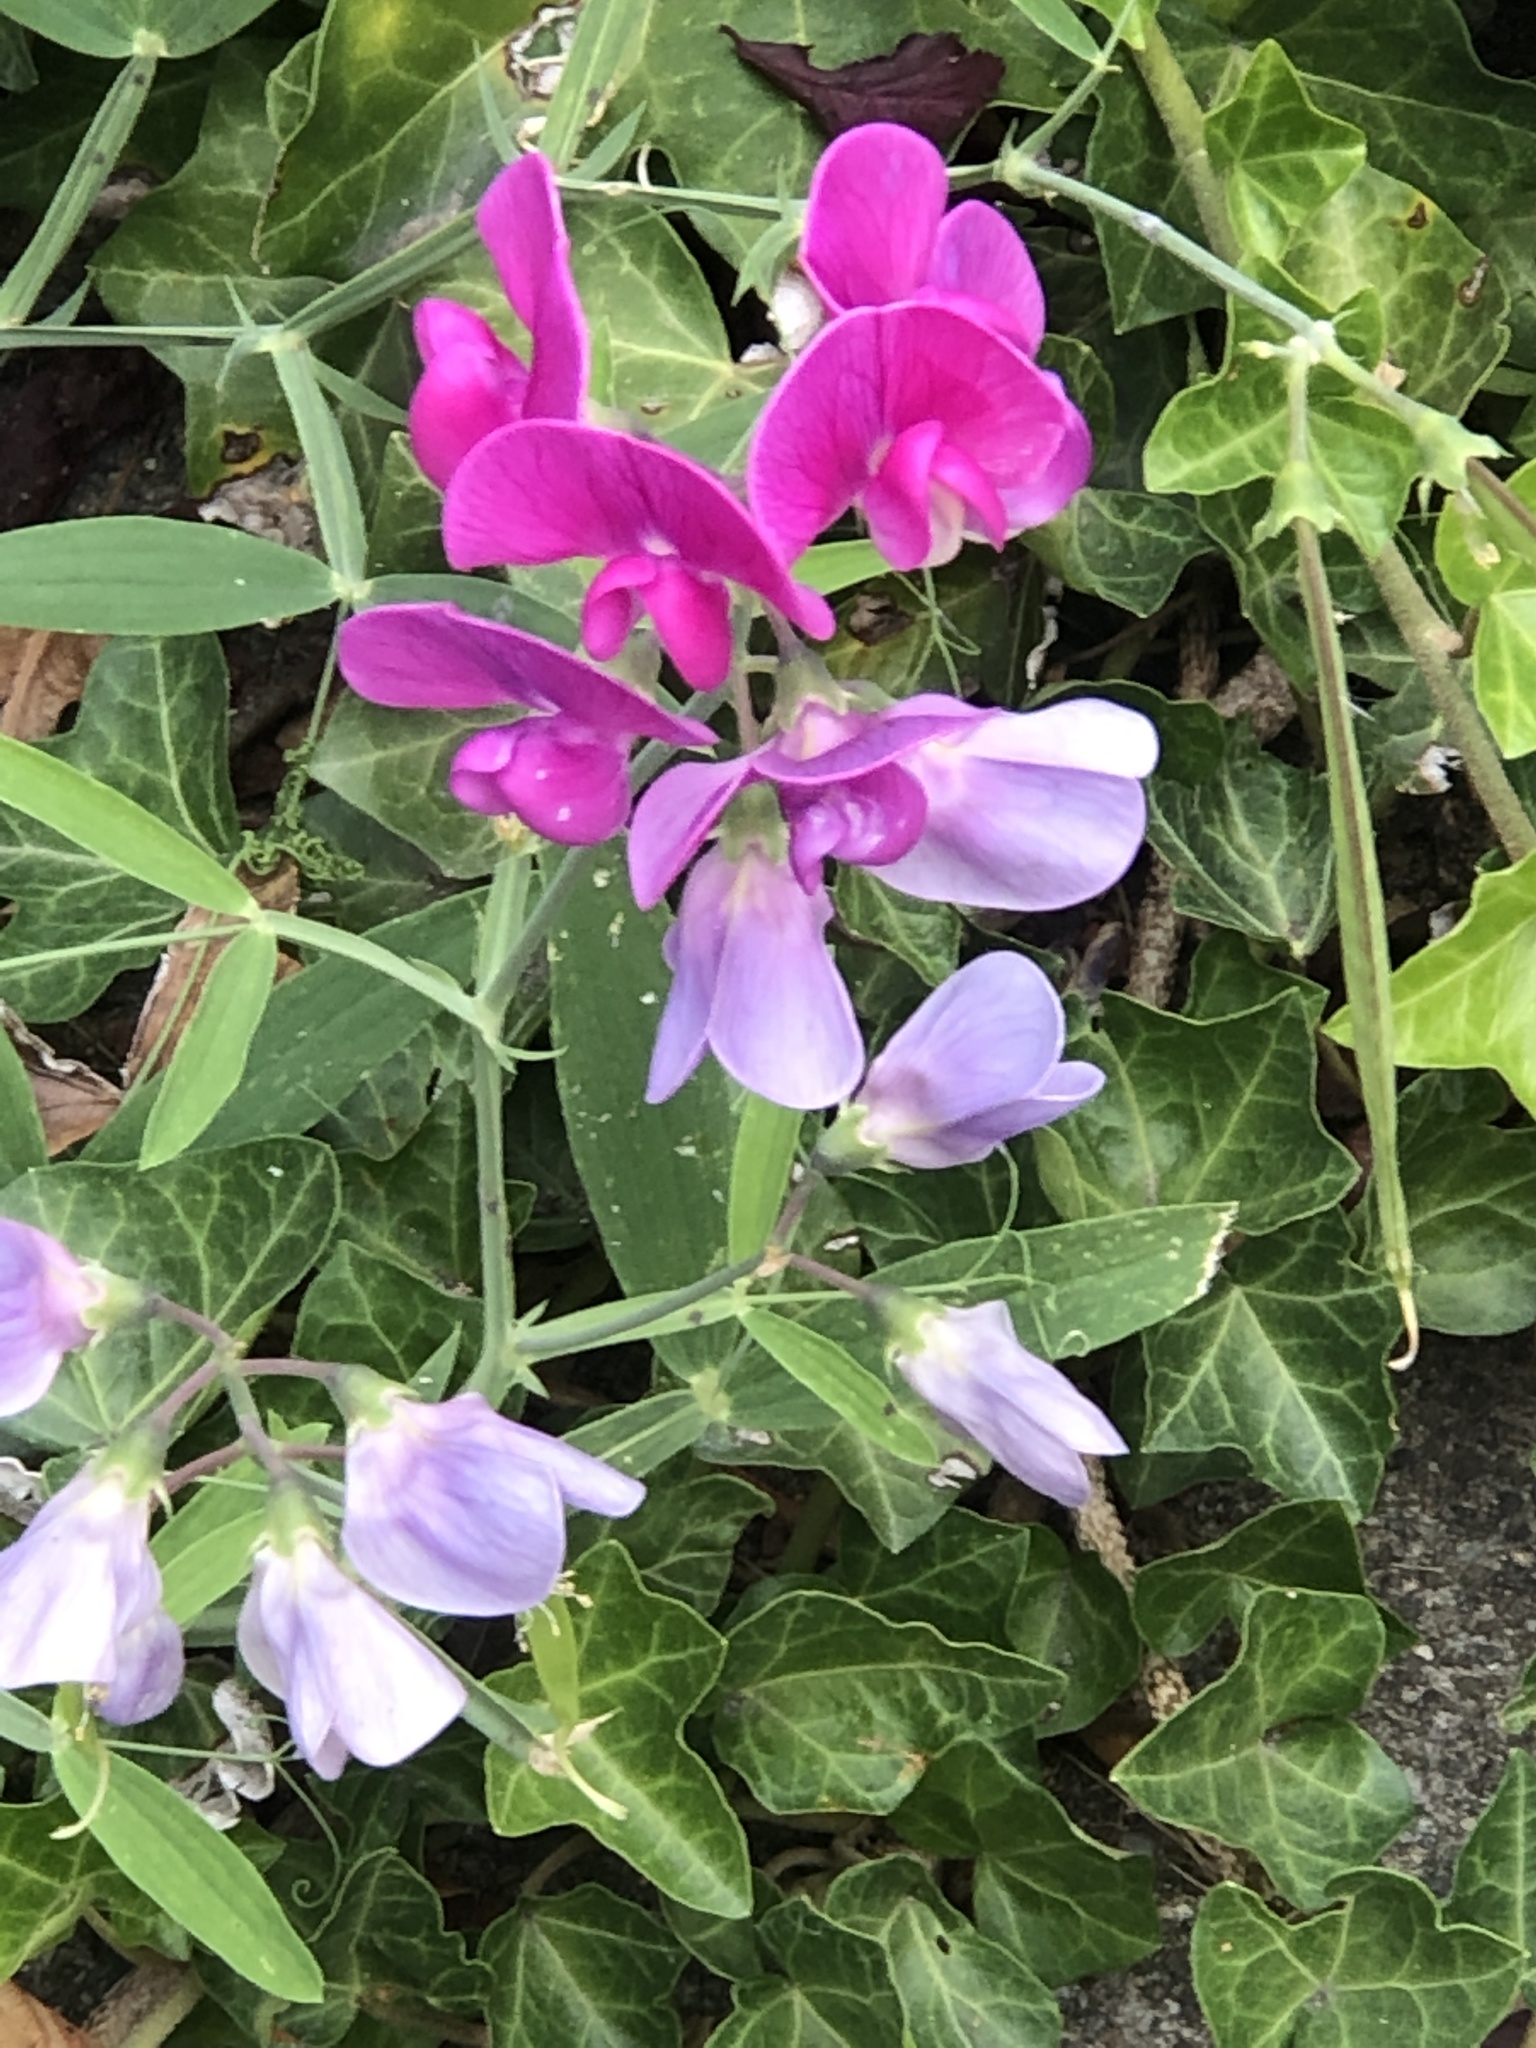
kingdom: Plantae
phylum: Tracheophyta
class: Magnoliopsida
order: Fabales
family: Fabaceae
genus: Lathyrus
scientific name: Lathyrus latifolius
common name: Perennial pea
